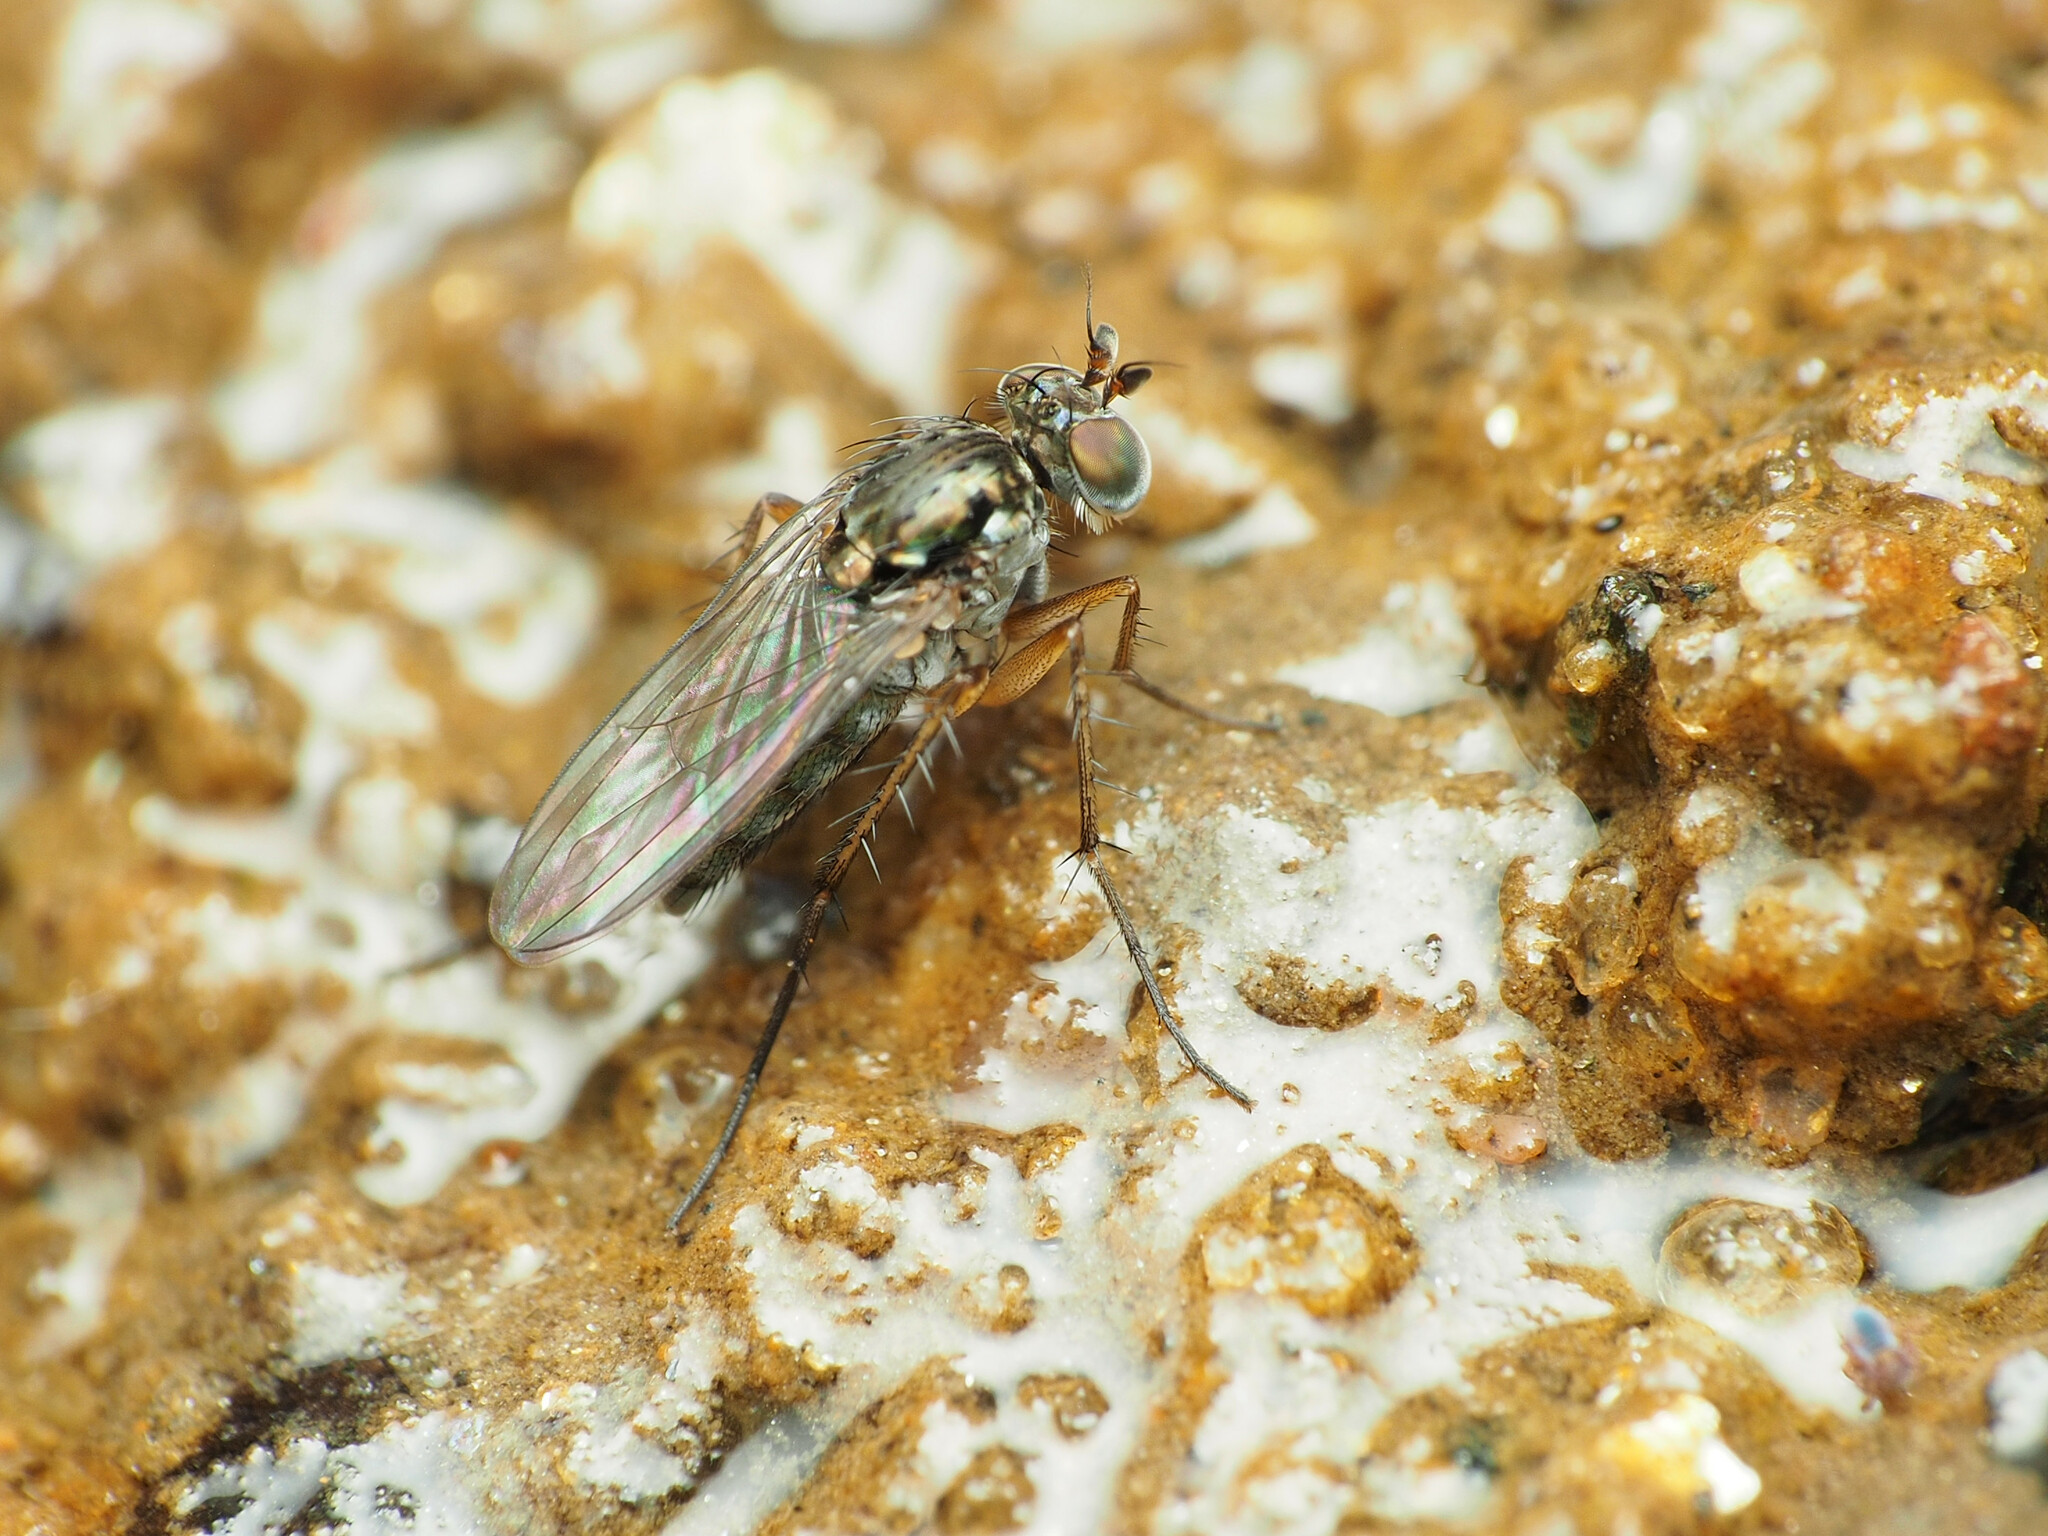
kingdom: Animalia
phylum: Arthropoda
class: Insecta
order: Diptera
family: Dolichopodidae
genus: Pelastoneurus
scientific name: Pelastoneurus vagans
